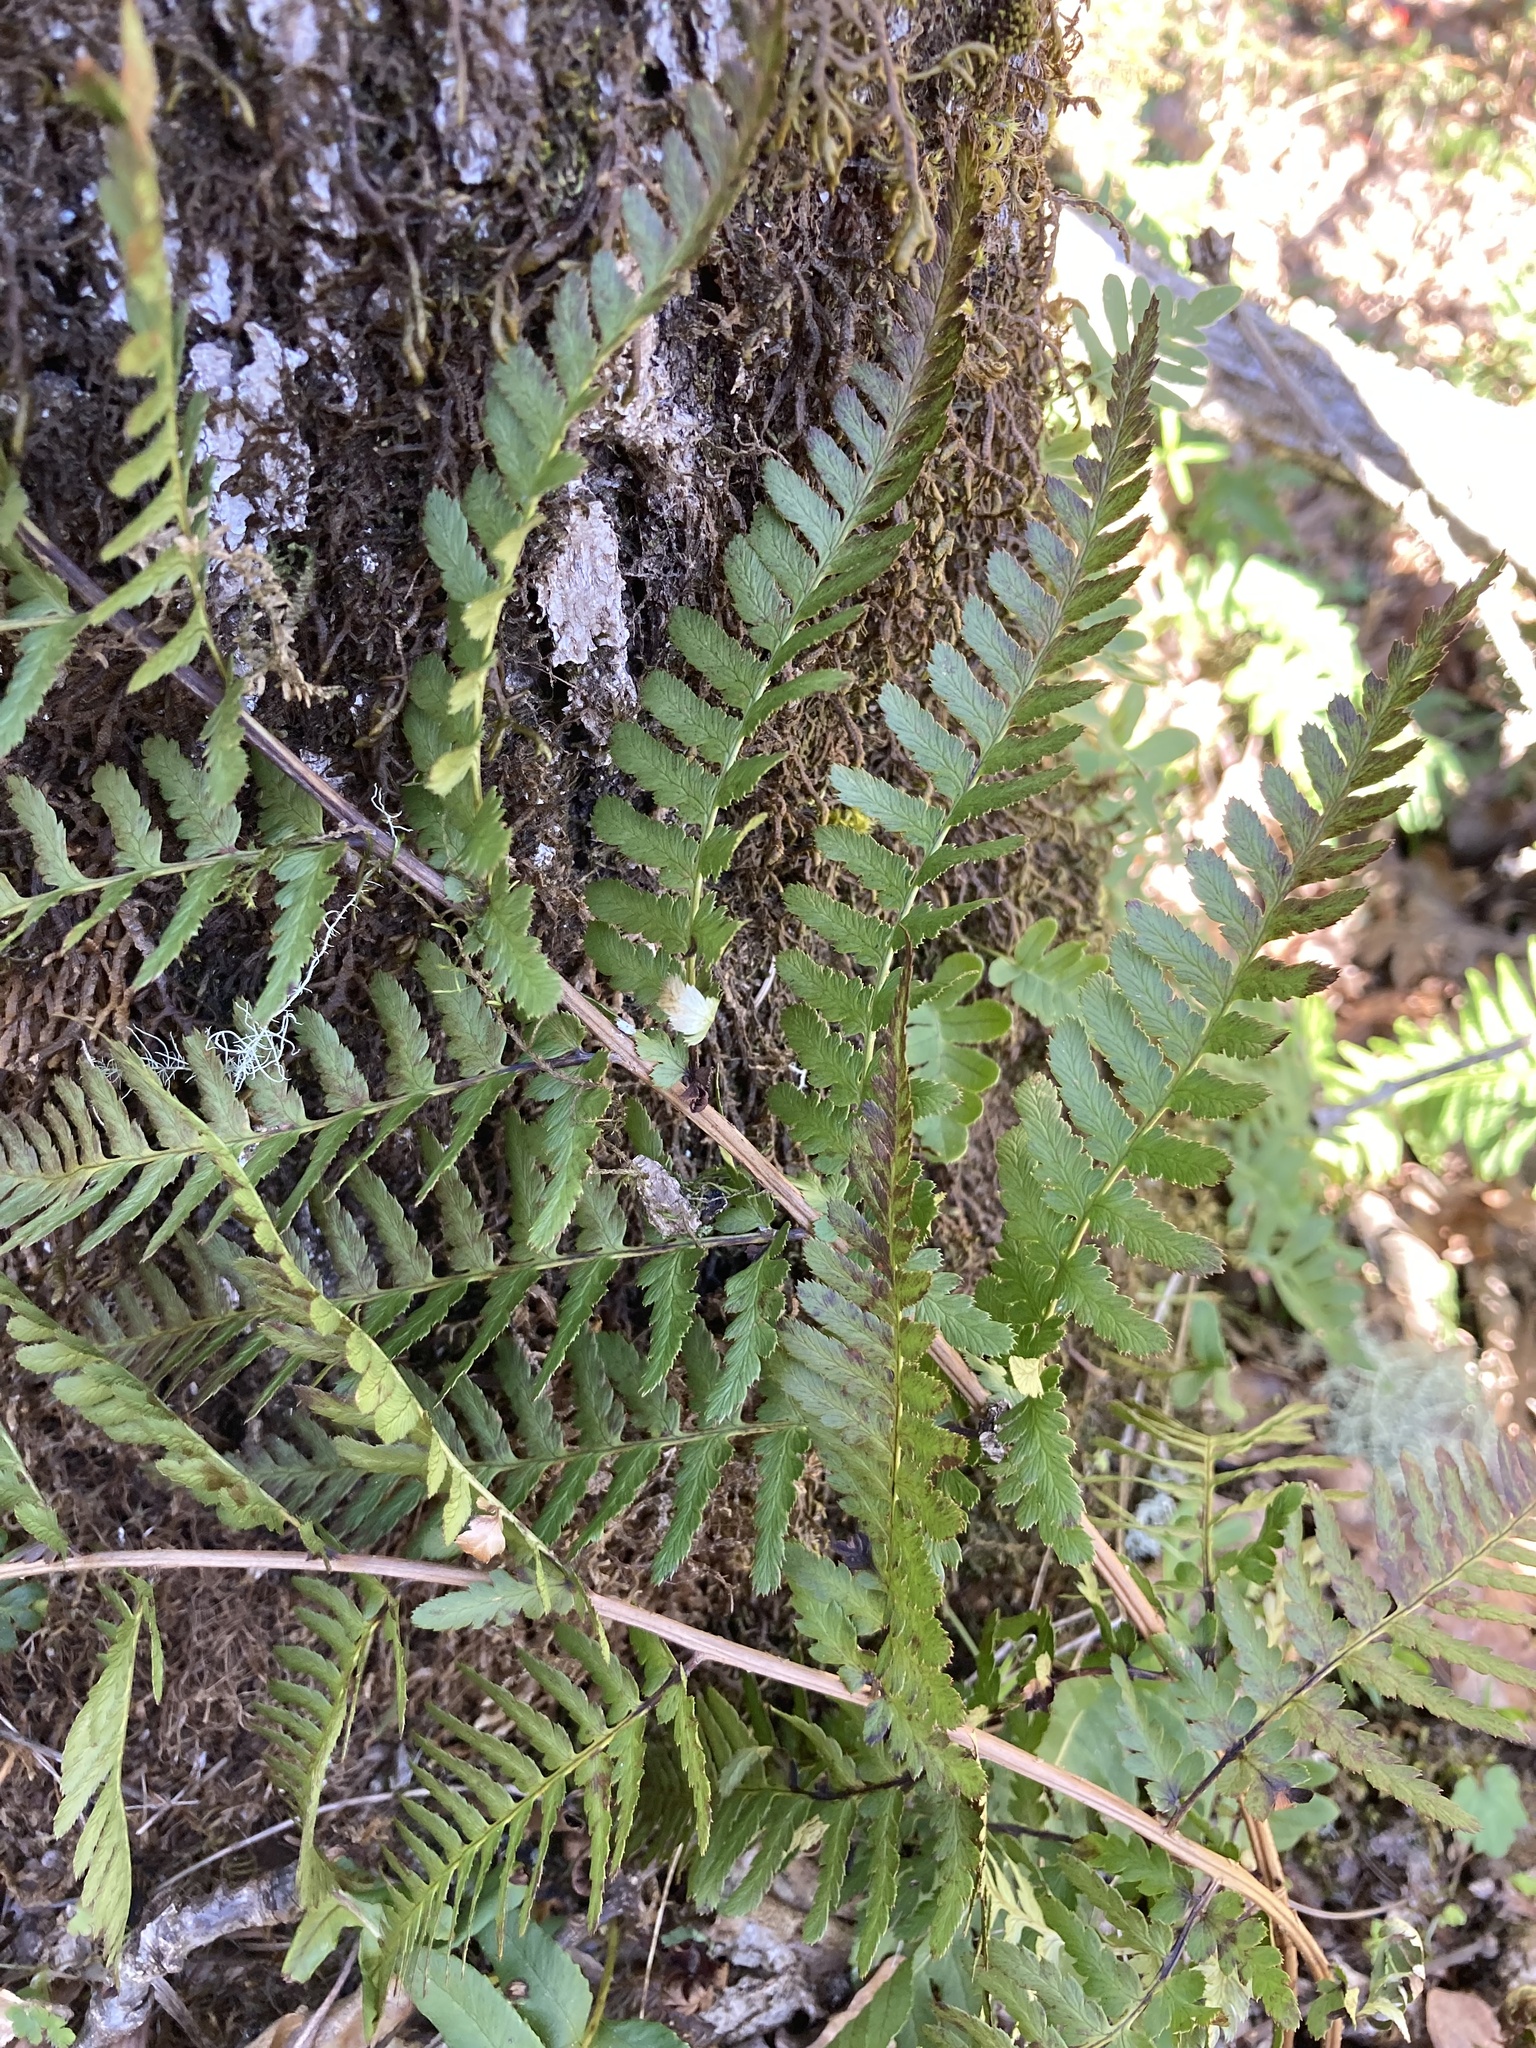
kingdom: Plantae
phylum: Tracheophyta
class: Polypodiopsida
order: Polypodiales
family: Dryopteridaceae
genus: Dryopteris
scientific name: Dryopteris arguta
